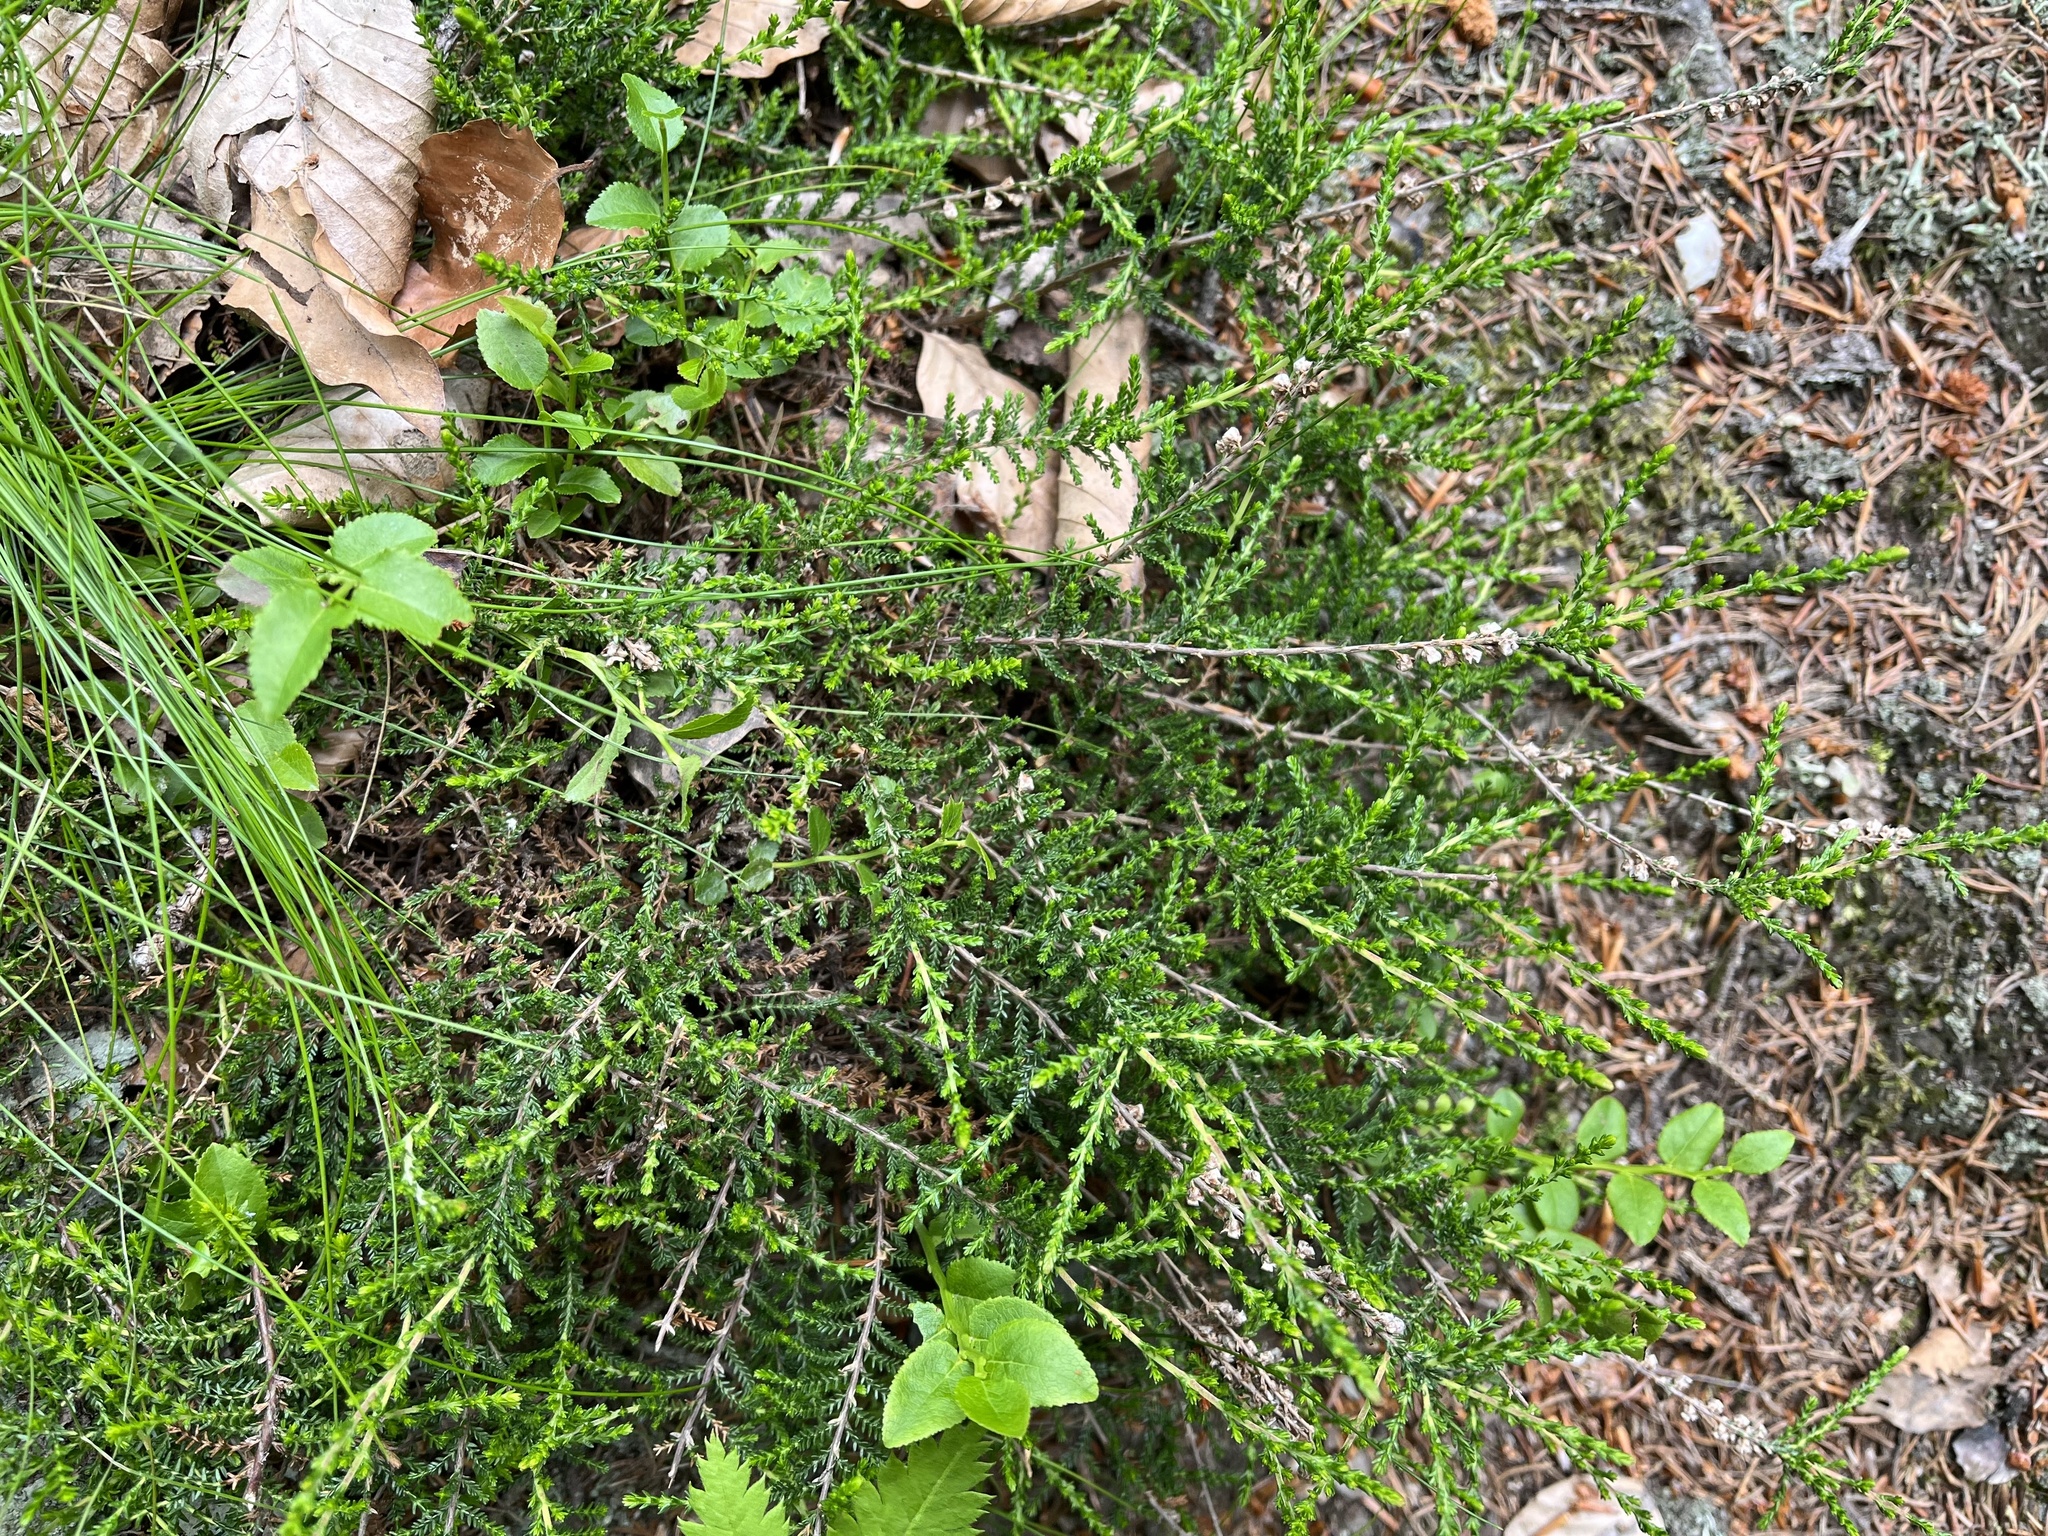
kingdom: Plantae
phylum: Tracheophyta
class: Magnoliopsida
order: Ericales
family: Ericaceae
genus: Calluna
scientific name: Calluna vulgaris
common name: Heather
